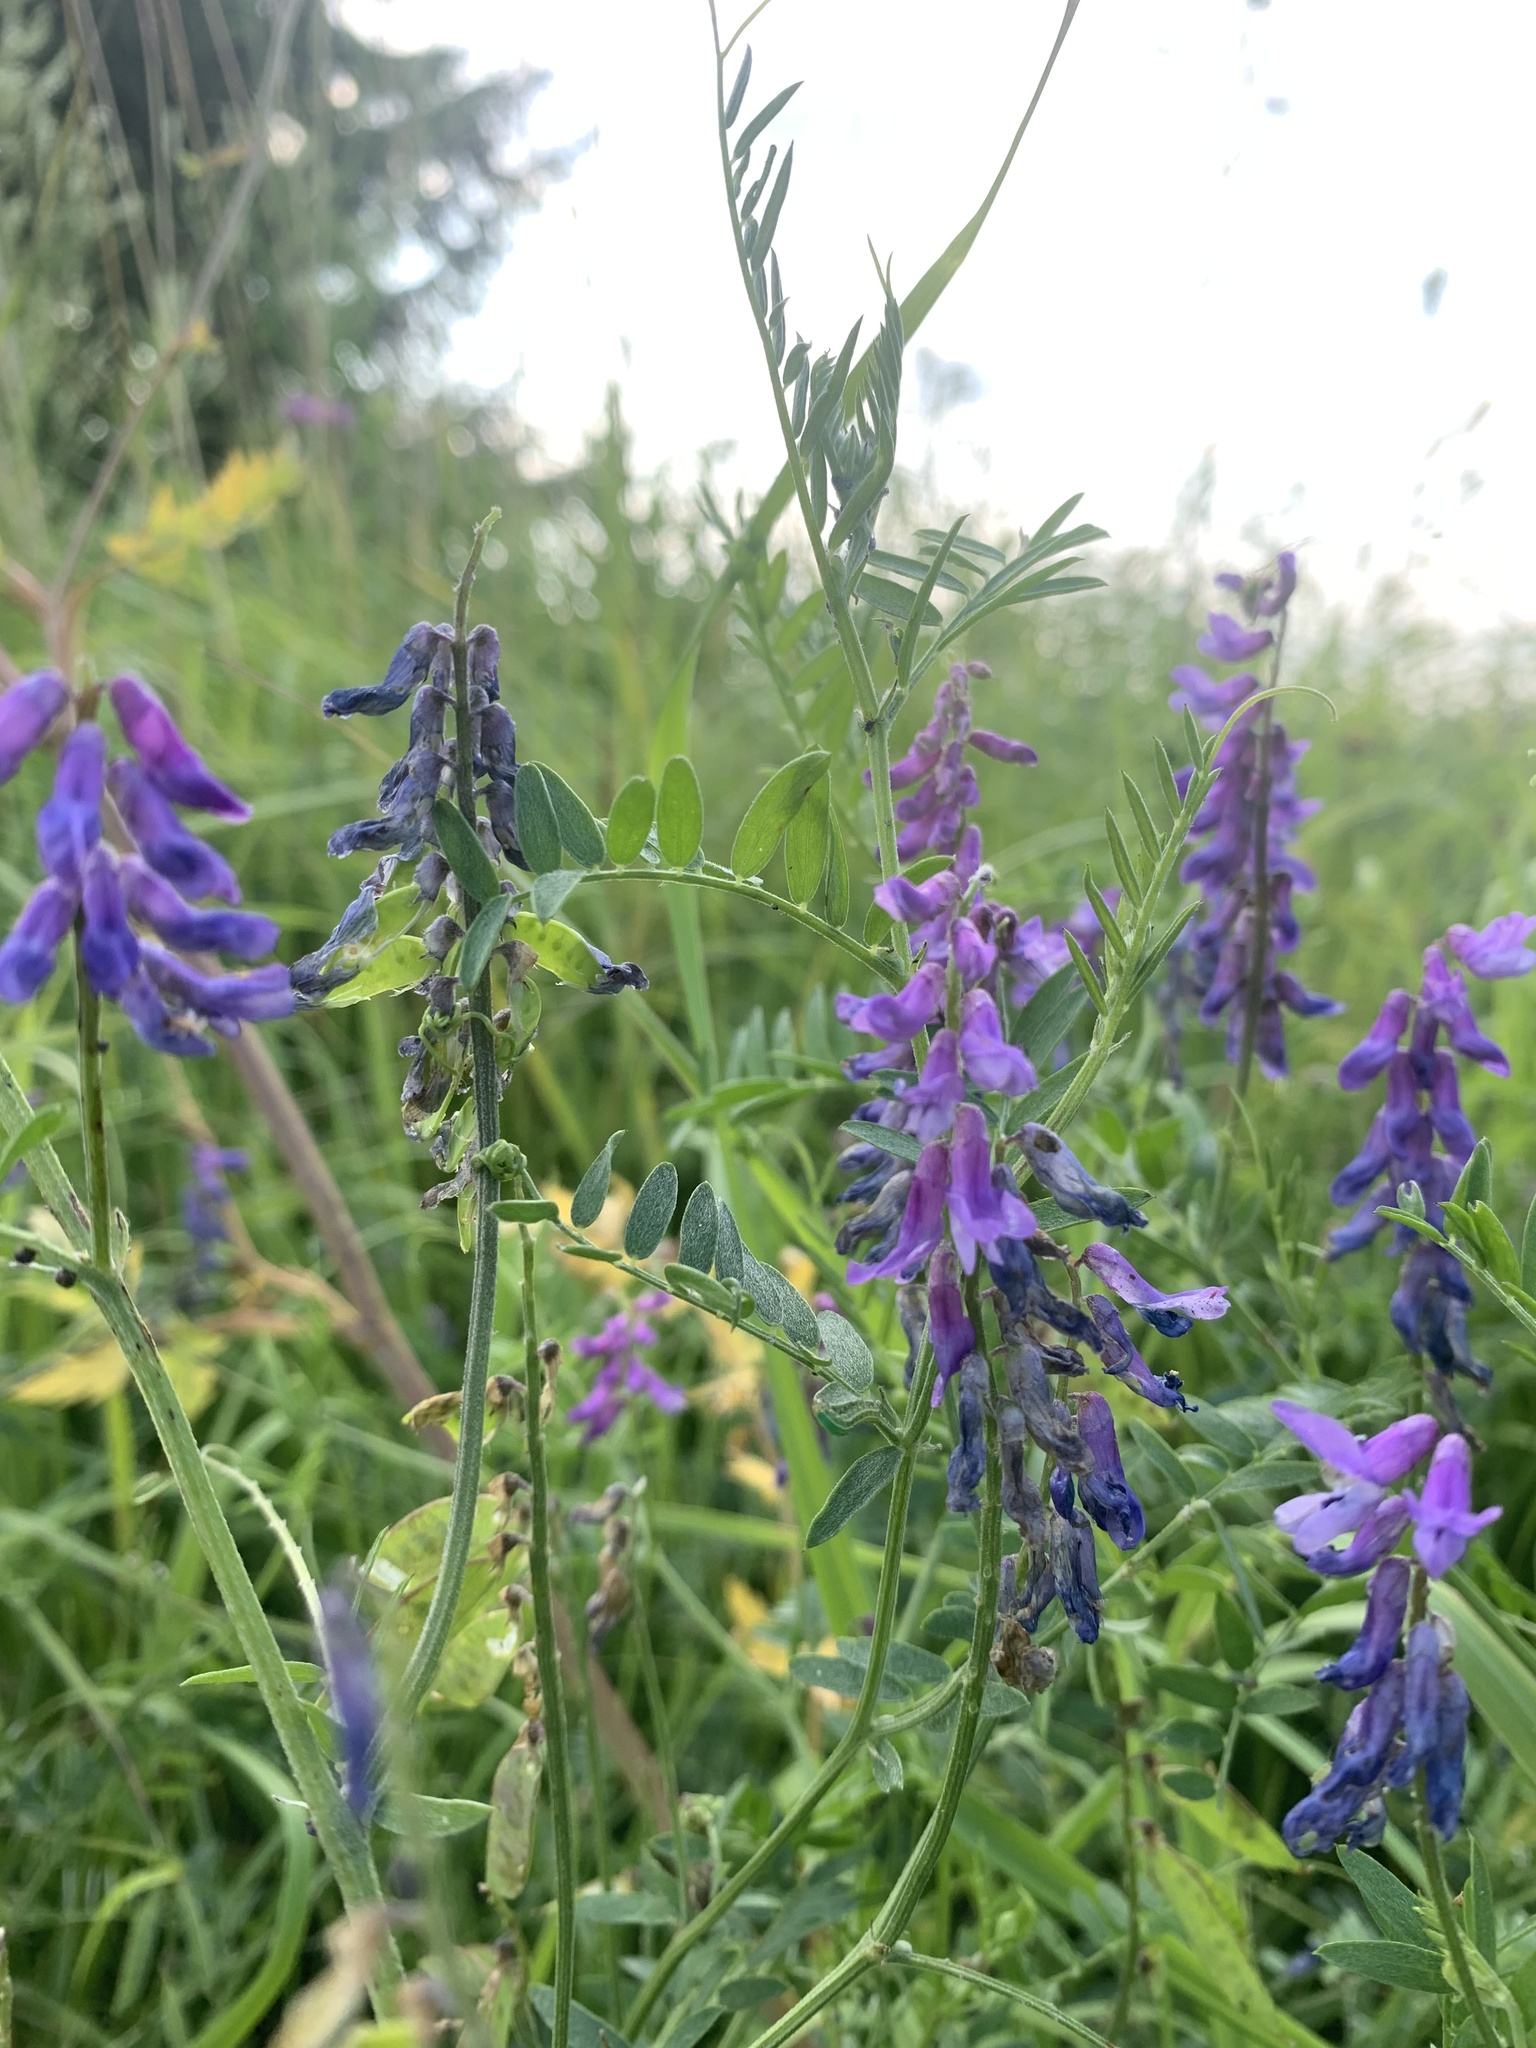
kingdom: Plantae
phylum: Tracheophyta
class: Magnoliopsida
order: Fabales
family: Fabaceae
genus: Vicia
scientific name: Vicia cracca
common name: Bird vetch
